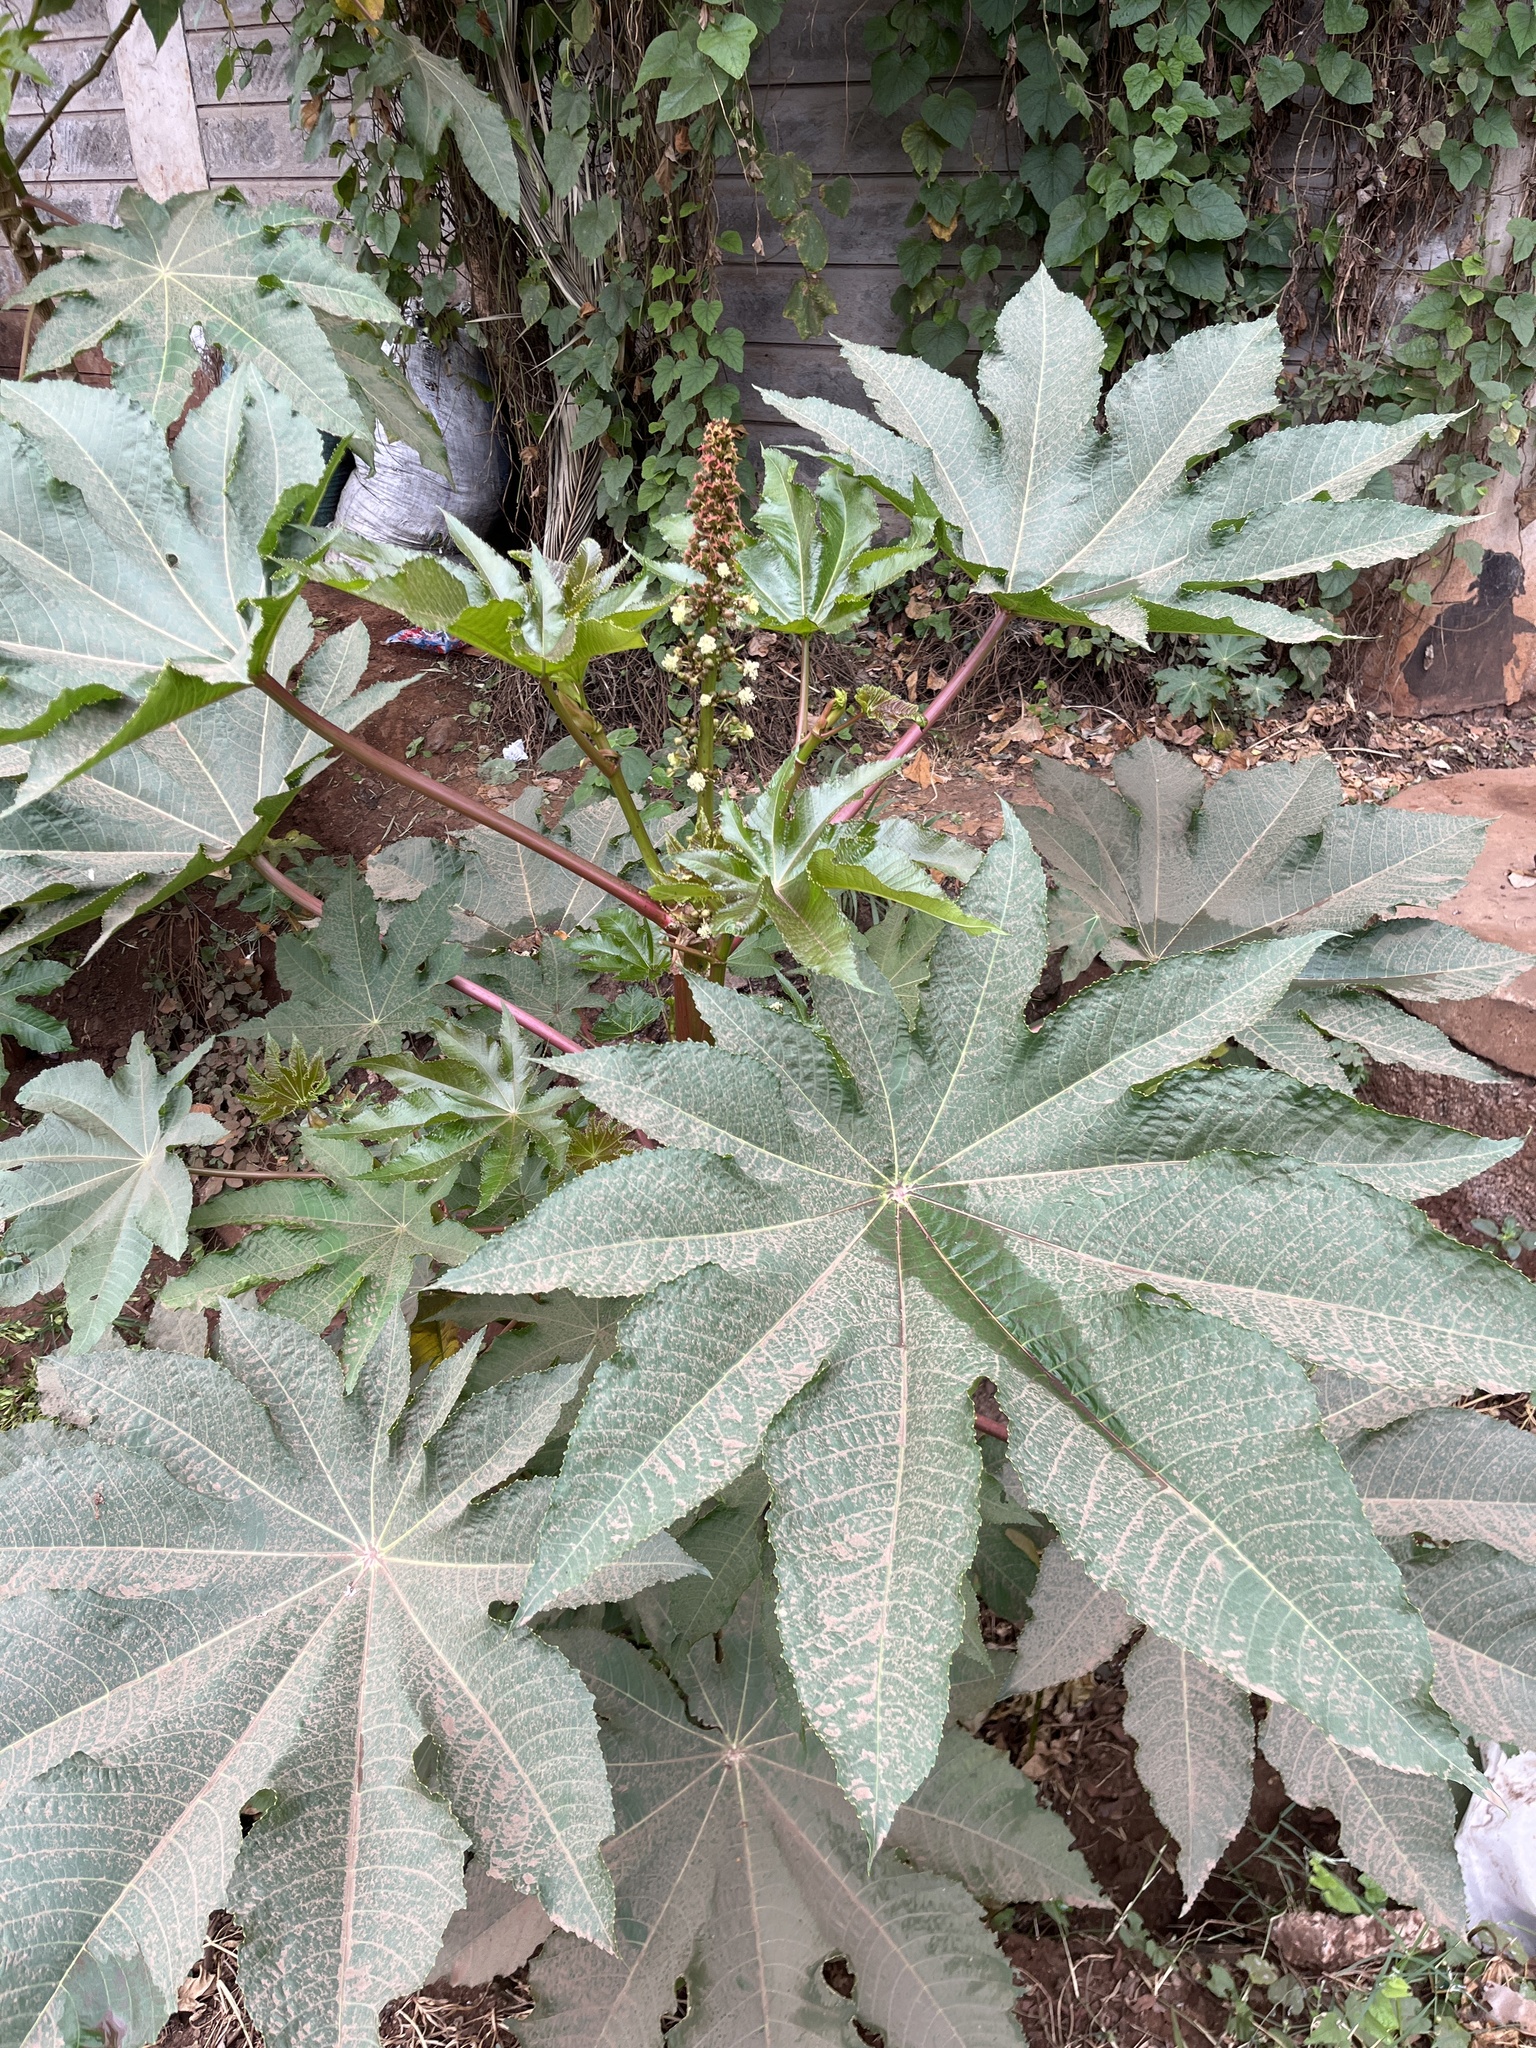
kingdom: Plantae
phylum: Tracheophyta
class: Magnoliopsida
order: Malpighiales
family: Euphorbiaceae
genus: Ricinus
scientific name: Ricinus communis
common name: Castor-oil-plant
